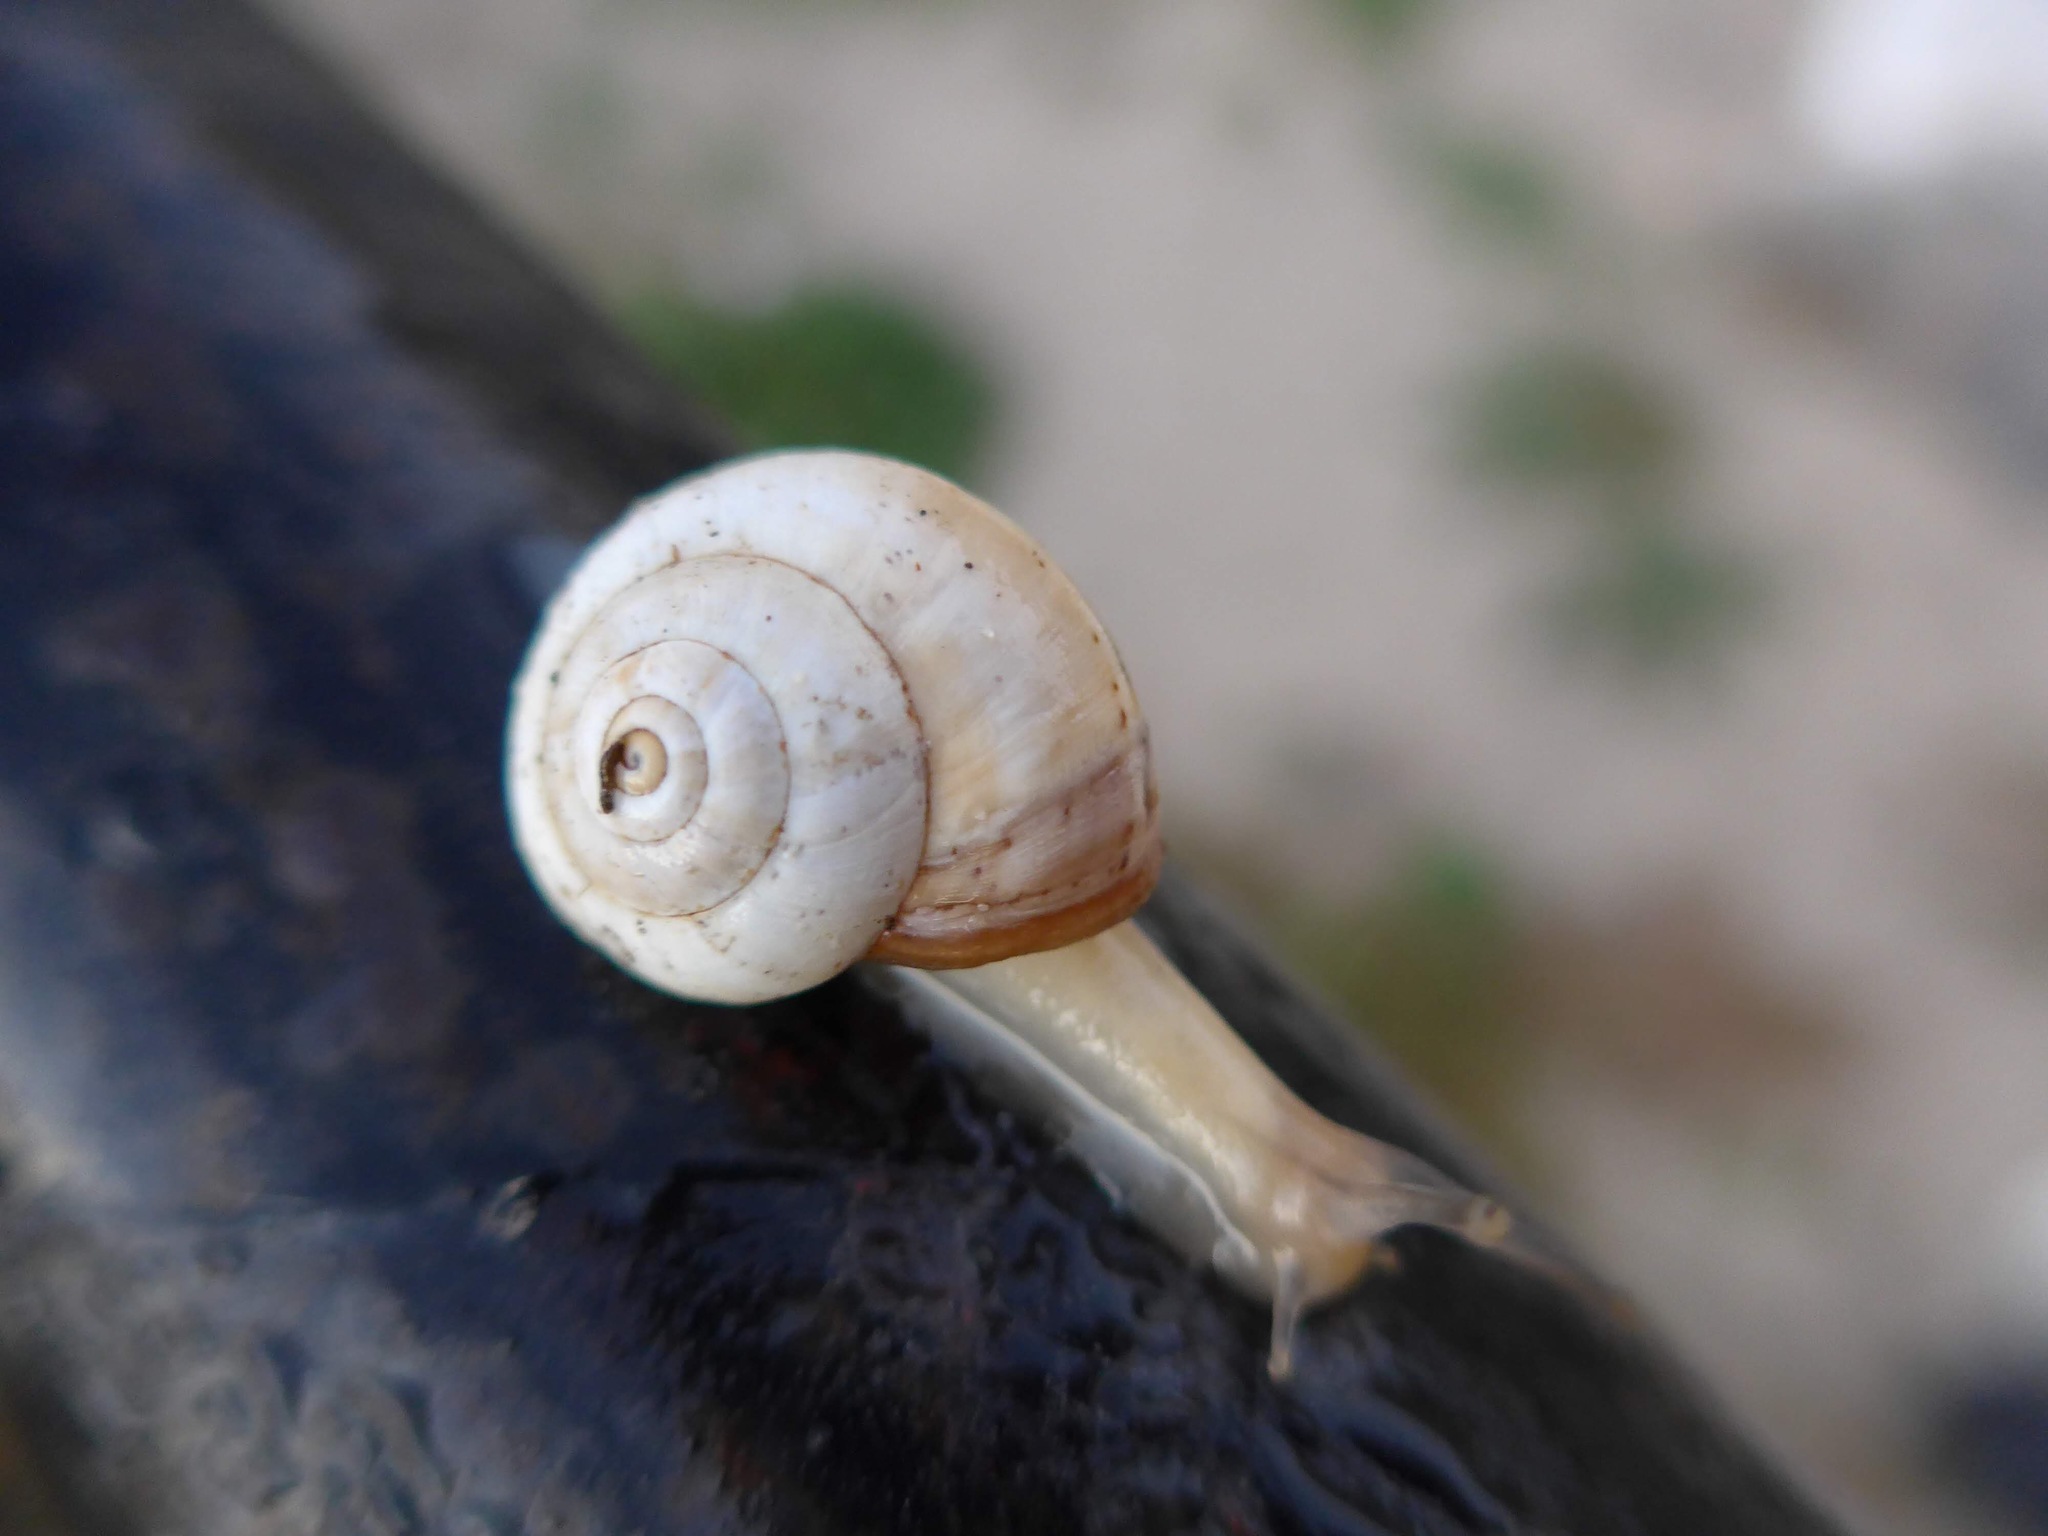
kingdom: Animalia
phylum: Mollusca
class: Gastropoda
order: Stylommatophora
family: Helicidae
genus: Theba
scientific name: Theba pisana
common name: White snail
